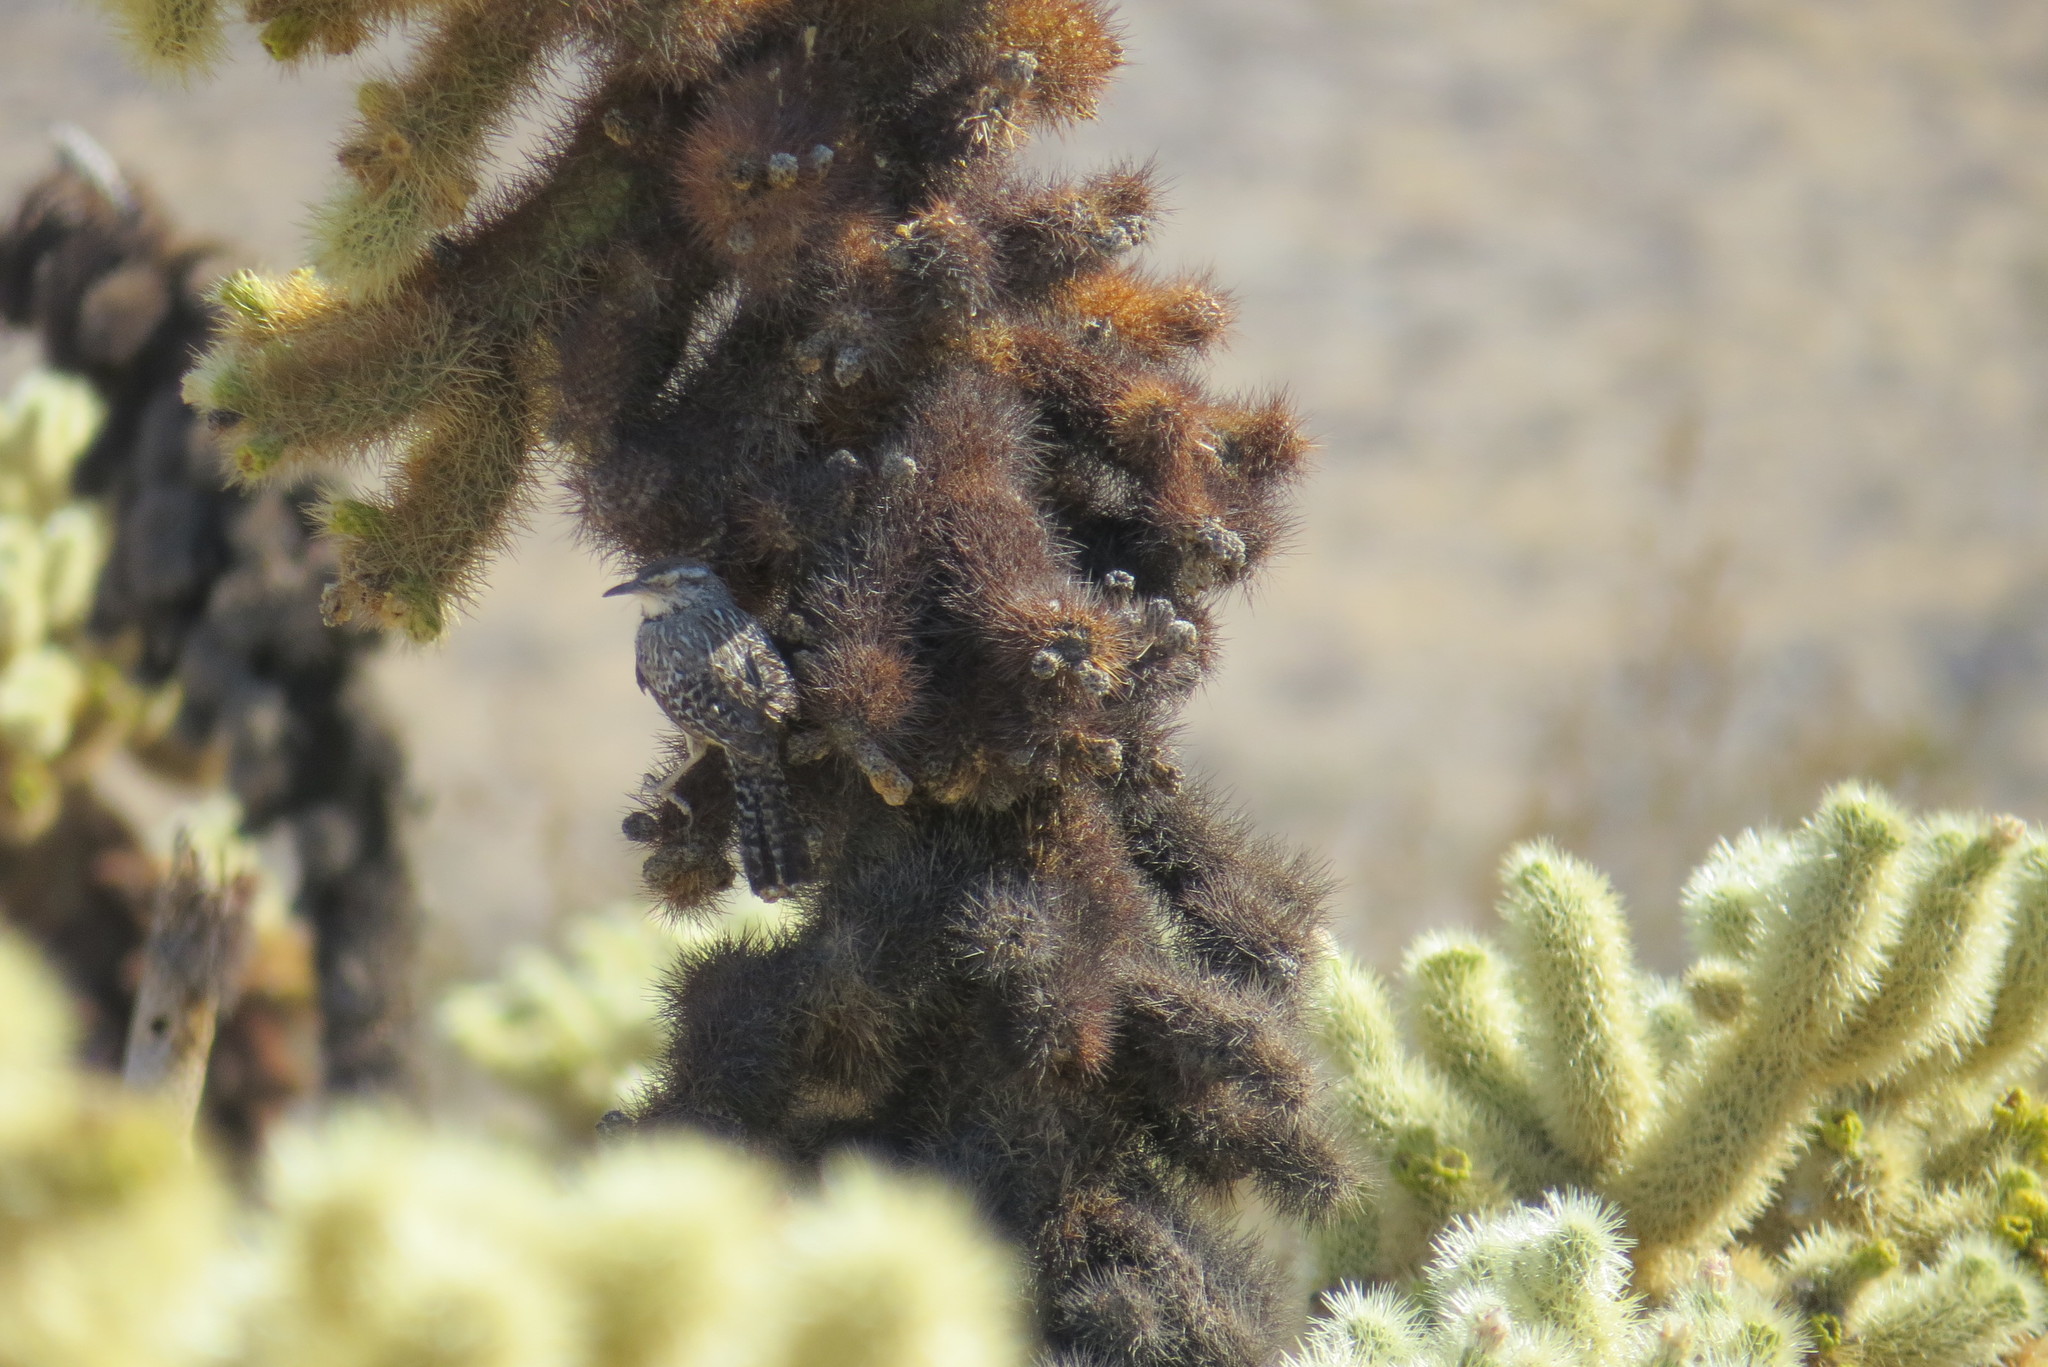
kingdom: Animalia
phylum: Chordata
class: Aves
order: Passeriformes
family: Troglodytidae
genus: Campylorhynchus
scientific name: Campylorhynchus brunneicapillus
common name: Cactus wren
